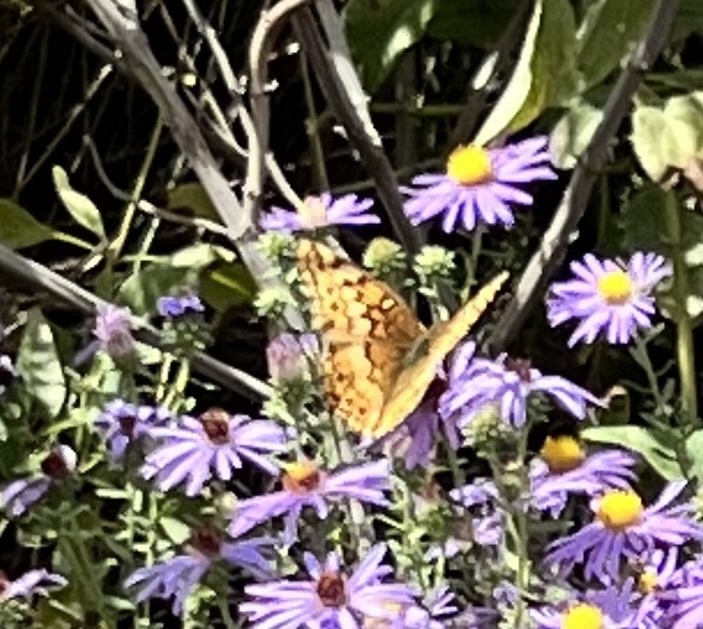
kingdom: Animalia
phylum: Arthropoda
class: Insecta
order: Lepidoptera
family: Nymphalidae
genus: Euptoieta
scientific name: Euptoieta claudia
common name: Variegated fritillary
